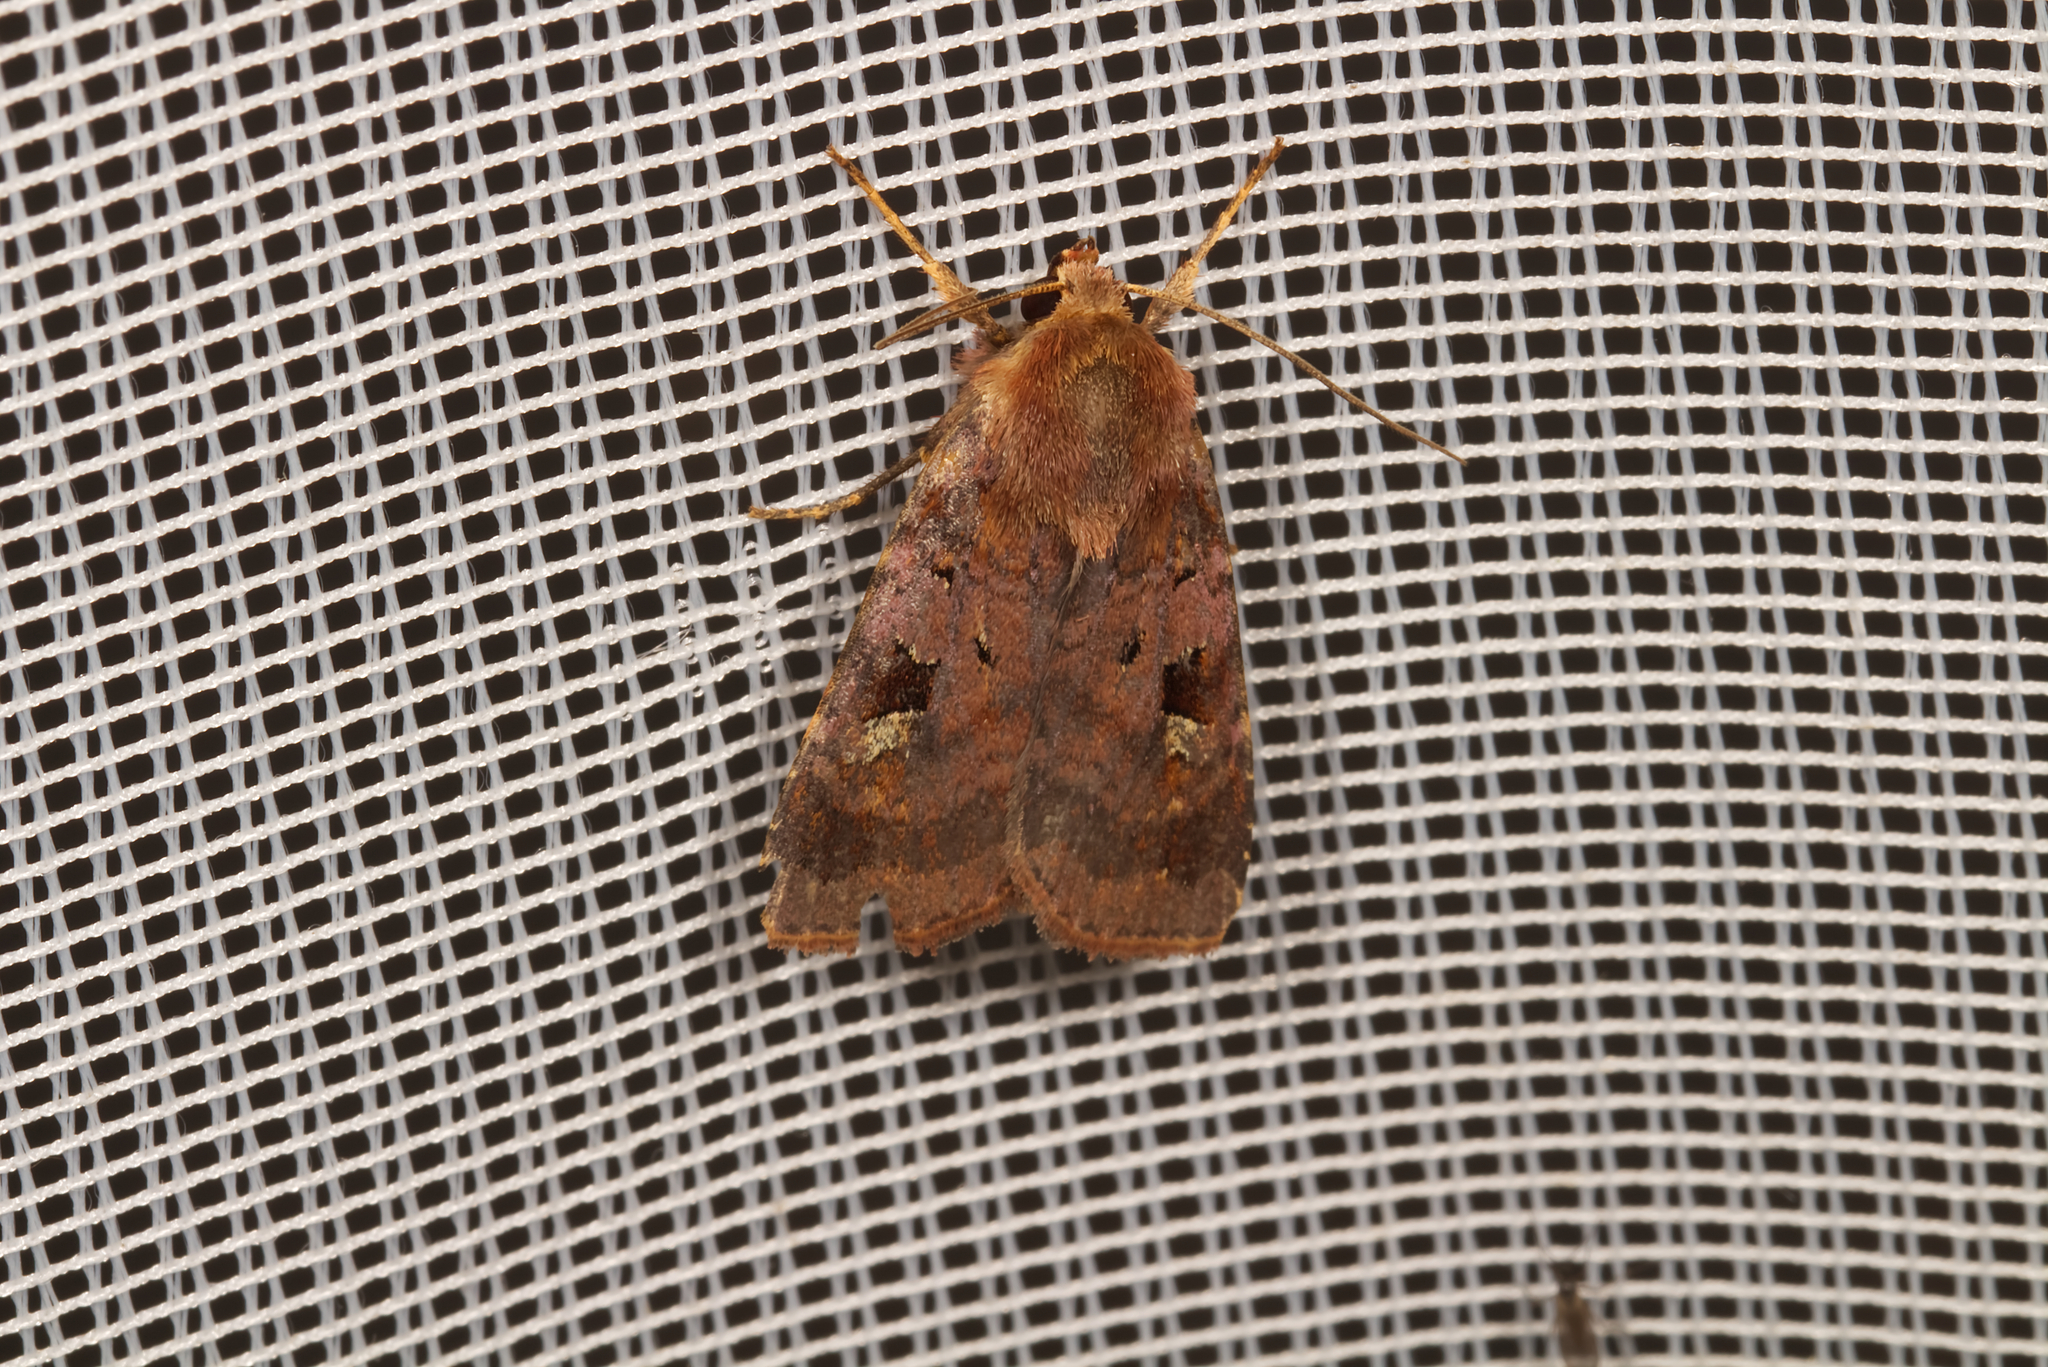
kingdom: Animalia
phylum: Arthropoda
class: Insecta
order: Lepidoptera
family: Noctuidae
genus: Diarsia
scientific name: Diarsia brunnea
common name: Purple clay
